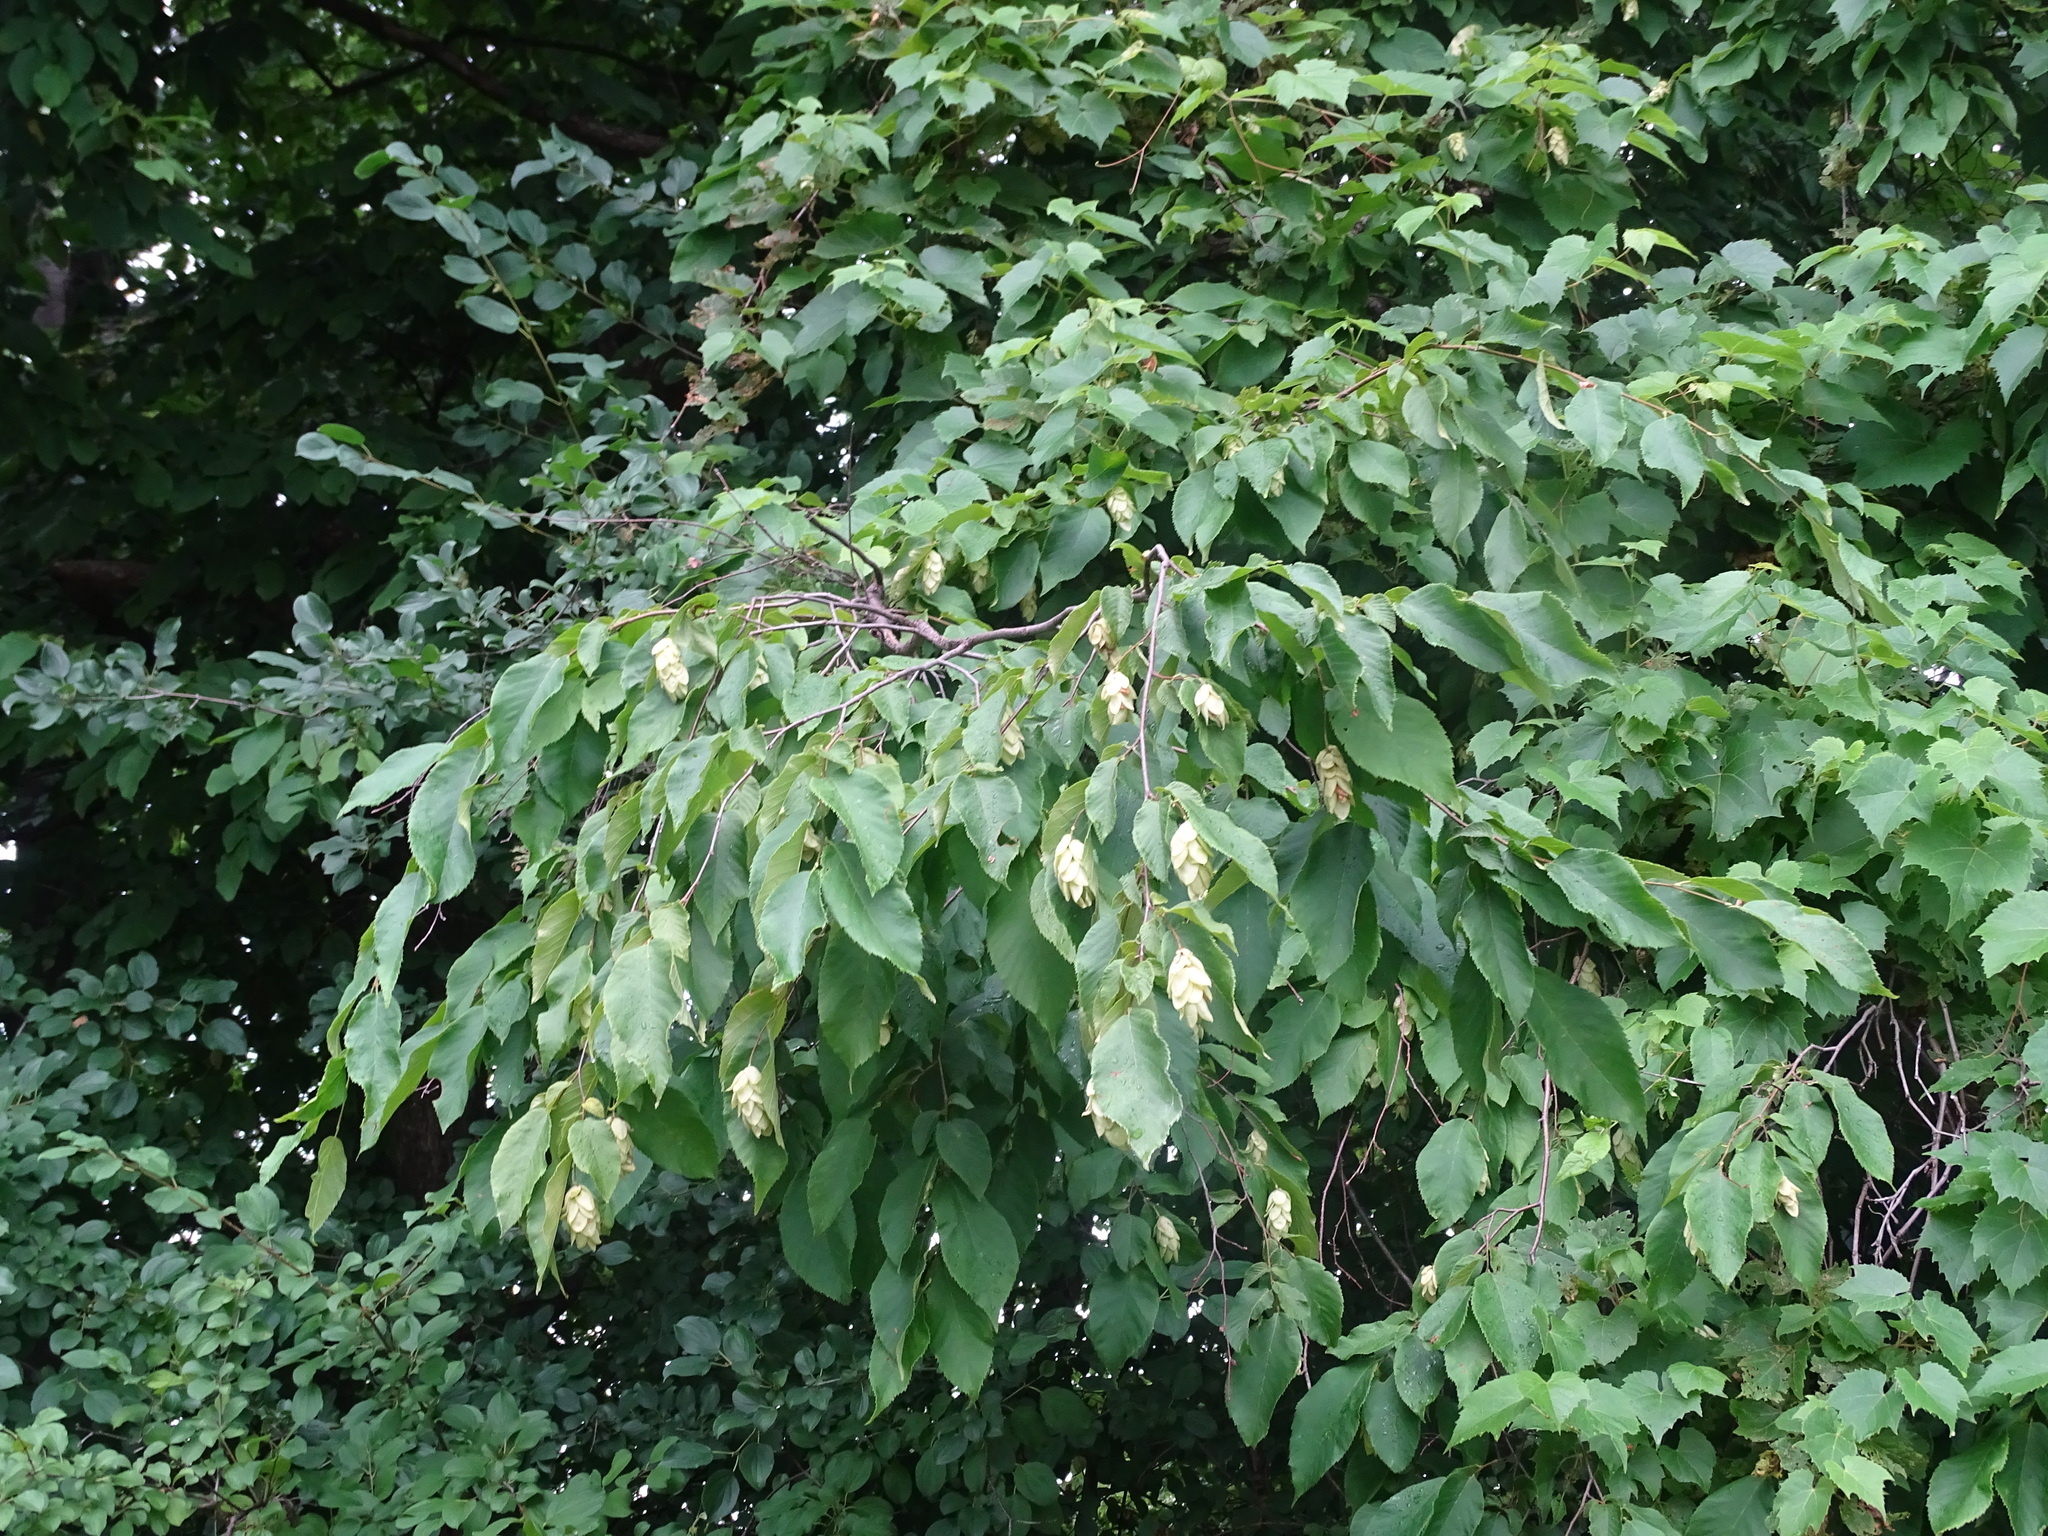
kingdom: Plantae
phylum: Tracheophyta
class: Magnoliopsida
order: Fagales
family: Betulaceae
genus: Ostrya
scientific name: Ostrya virginiana
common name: Ironwood
